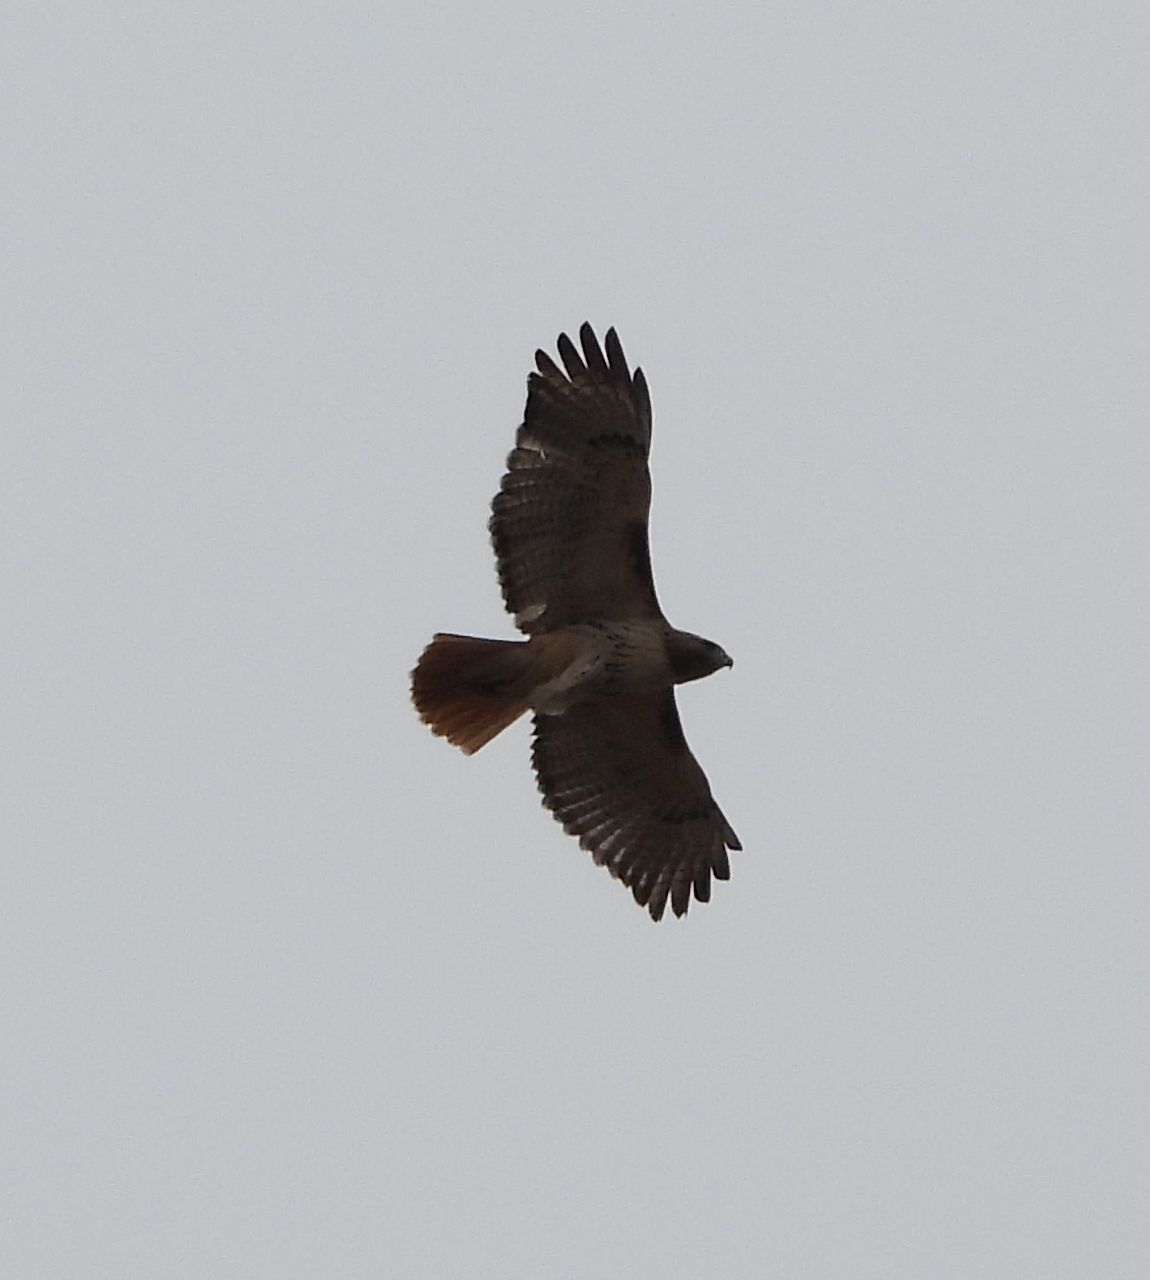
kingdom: Animalia
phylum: Chordata
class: Aves
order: Accipitriformes
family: Accipitridae
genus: Buteo
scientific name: Buteo jamaicensis
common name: Red-tailed hawk
